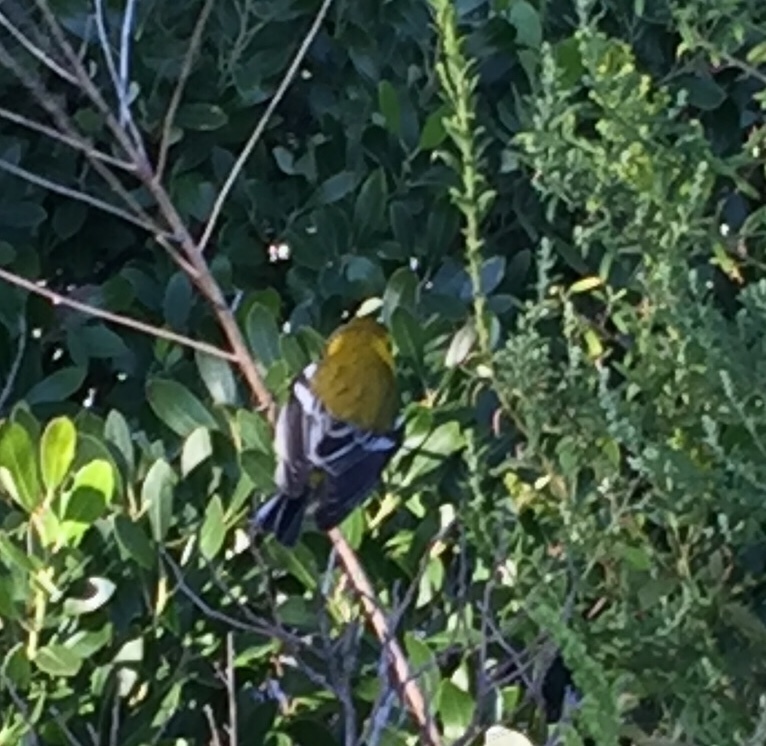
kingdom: Animalia
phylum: Chordata
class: Aves
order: Passeriformes
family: Parulidae
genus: Setophaga
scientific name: Setophaga virens
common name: Black-throated green warbler
